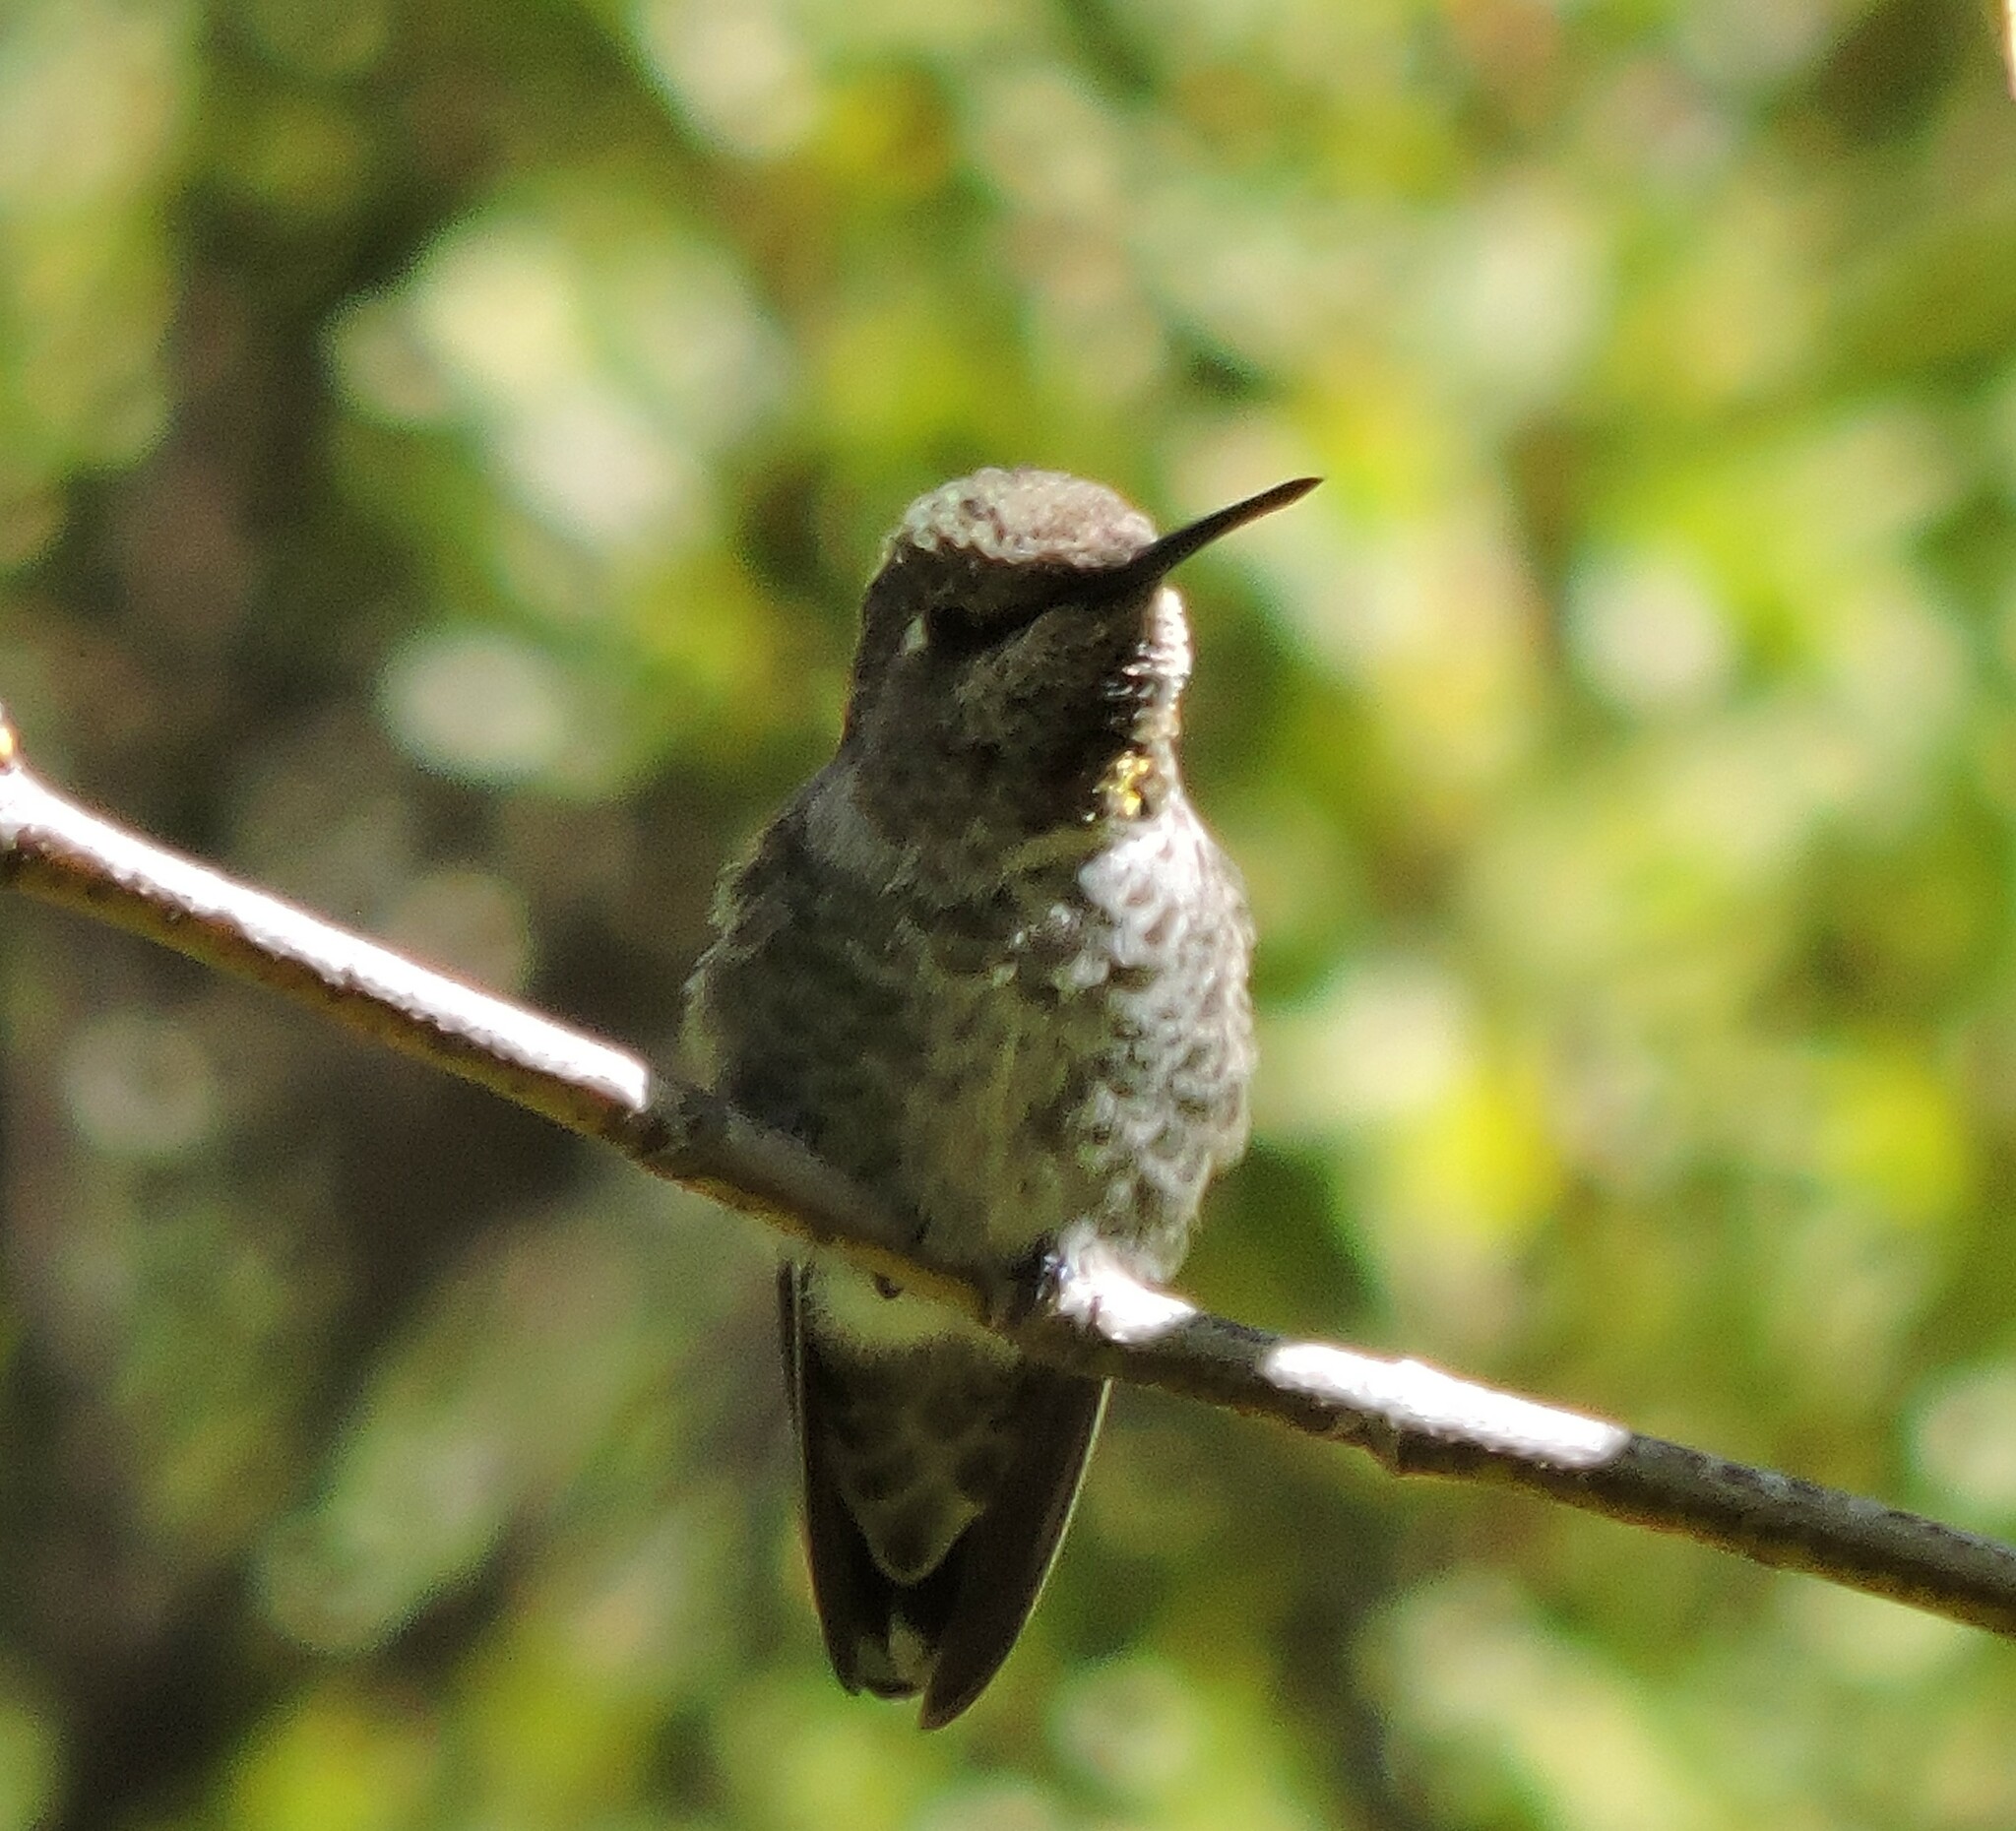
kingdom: Animalia
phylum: Chordata
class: Aves
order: Apodiformes
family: Trochilidae
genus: Calypte
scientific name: Calypte anna
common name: Anna's hummingbird
